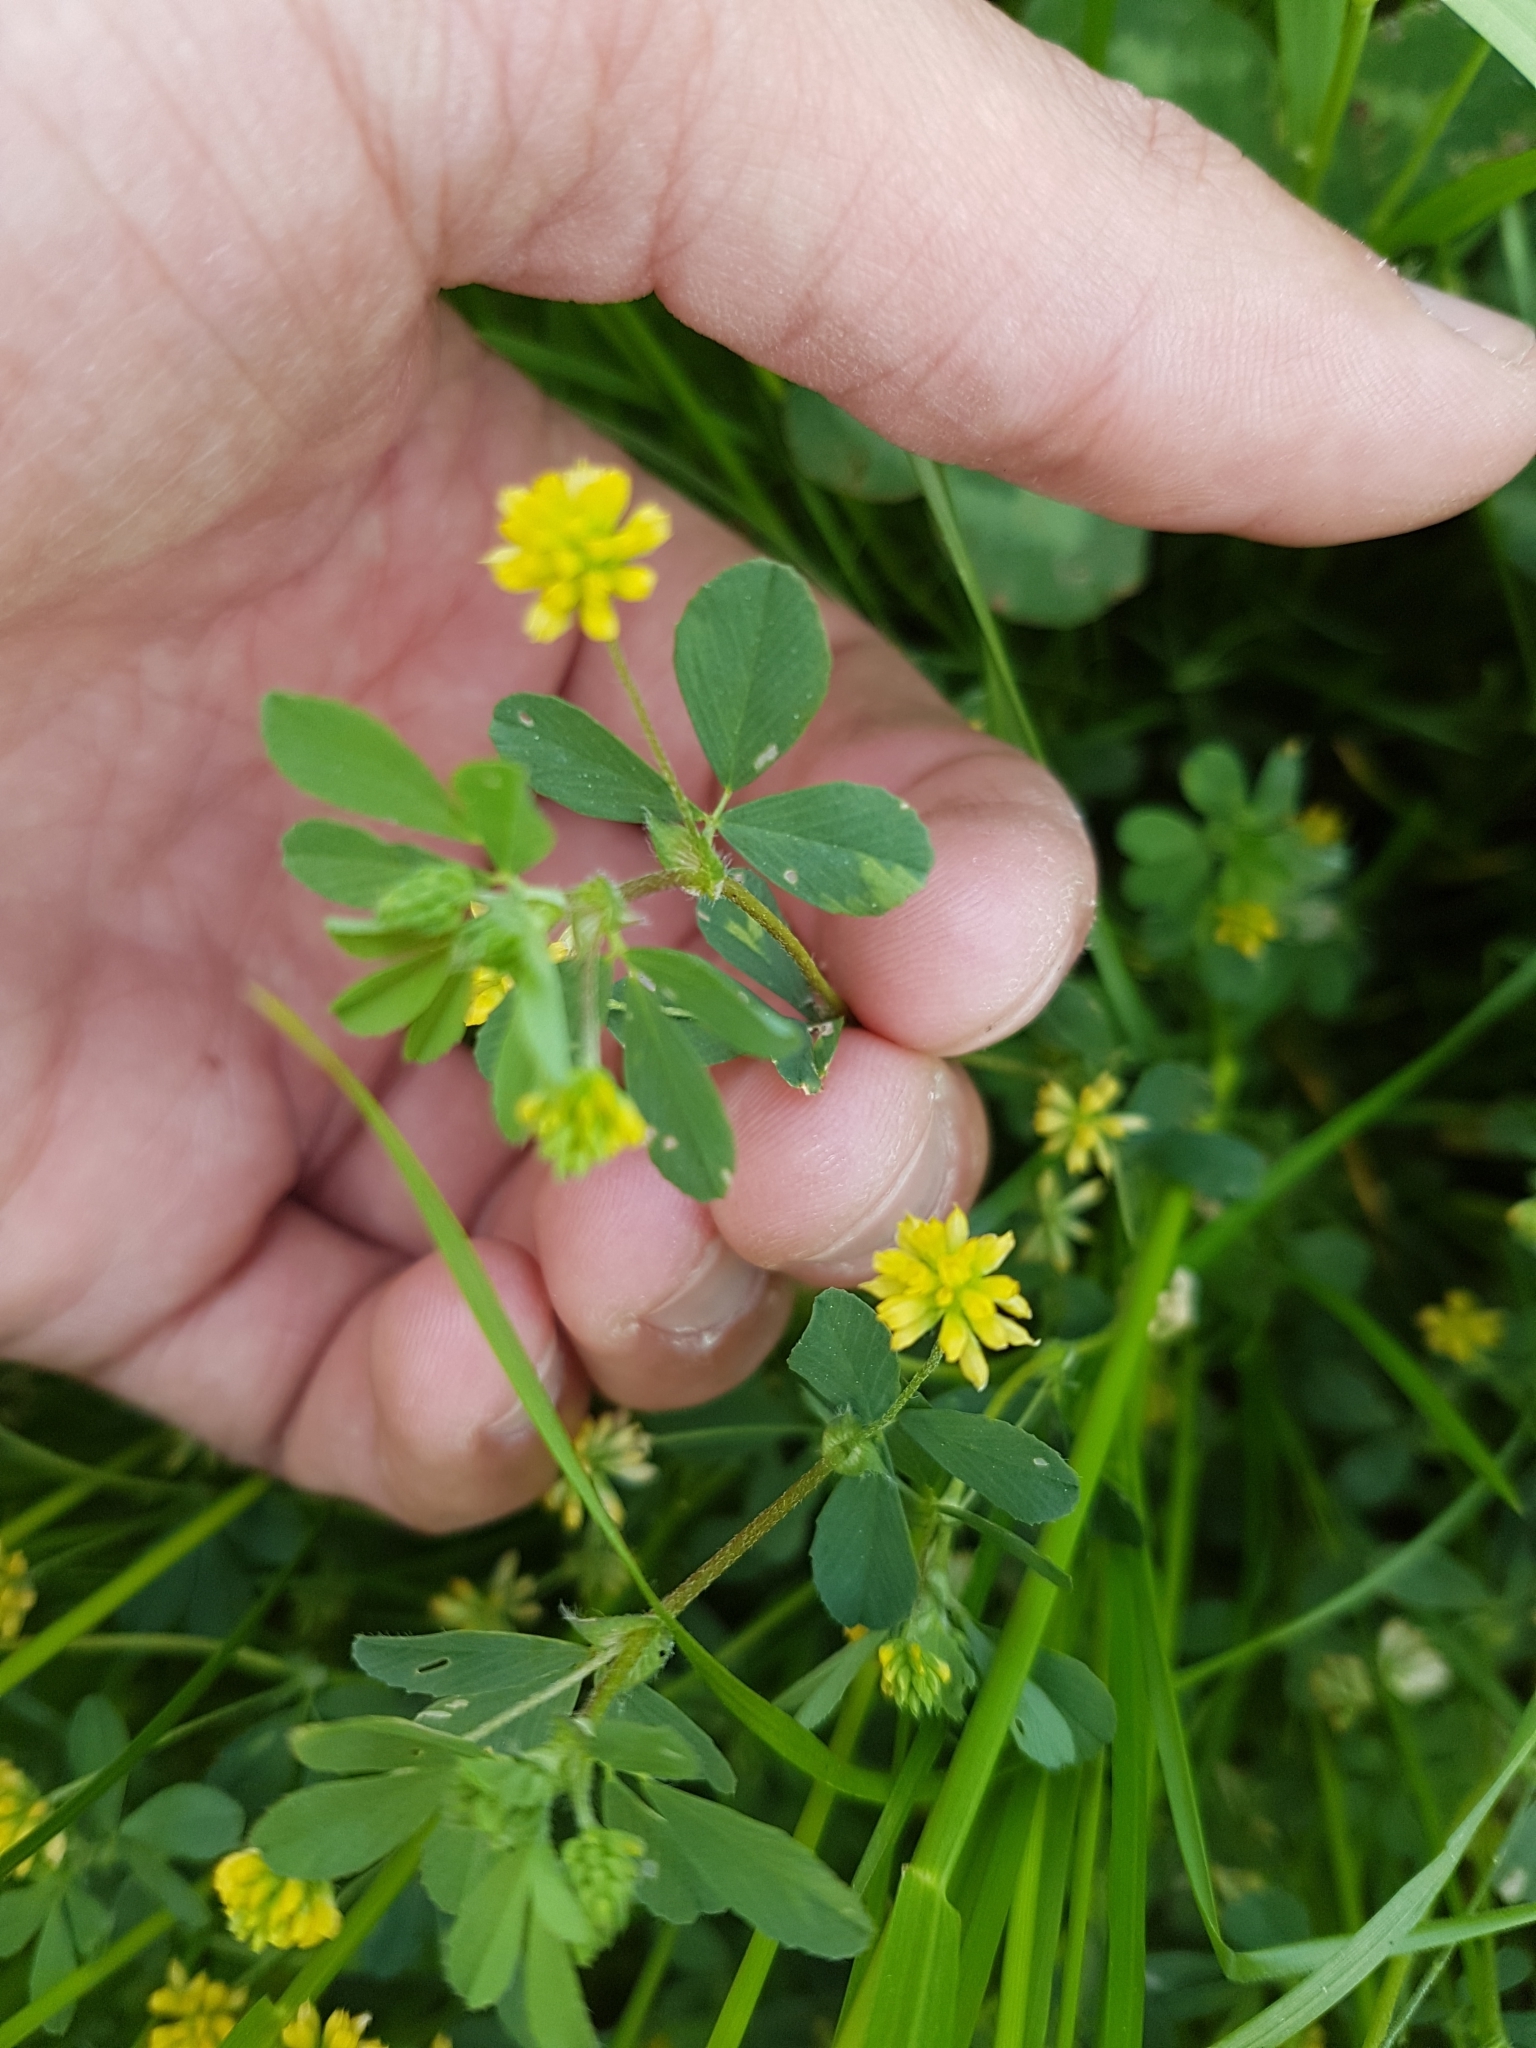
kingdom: Plantae
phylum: Tracheophyta
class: Magnoliopsida
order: Fabales
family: Fabaceae
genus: Trifolium
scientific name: Trifolium dubium
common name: Suckling clover
